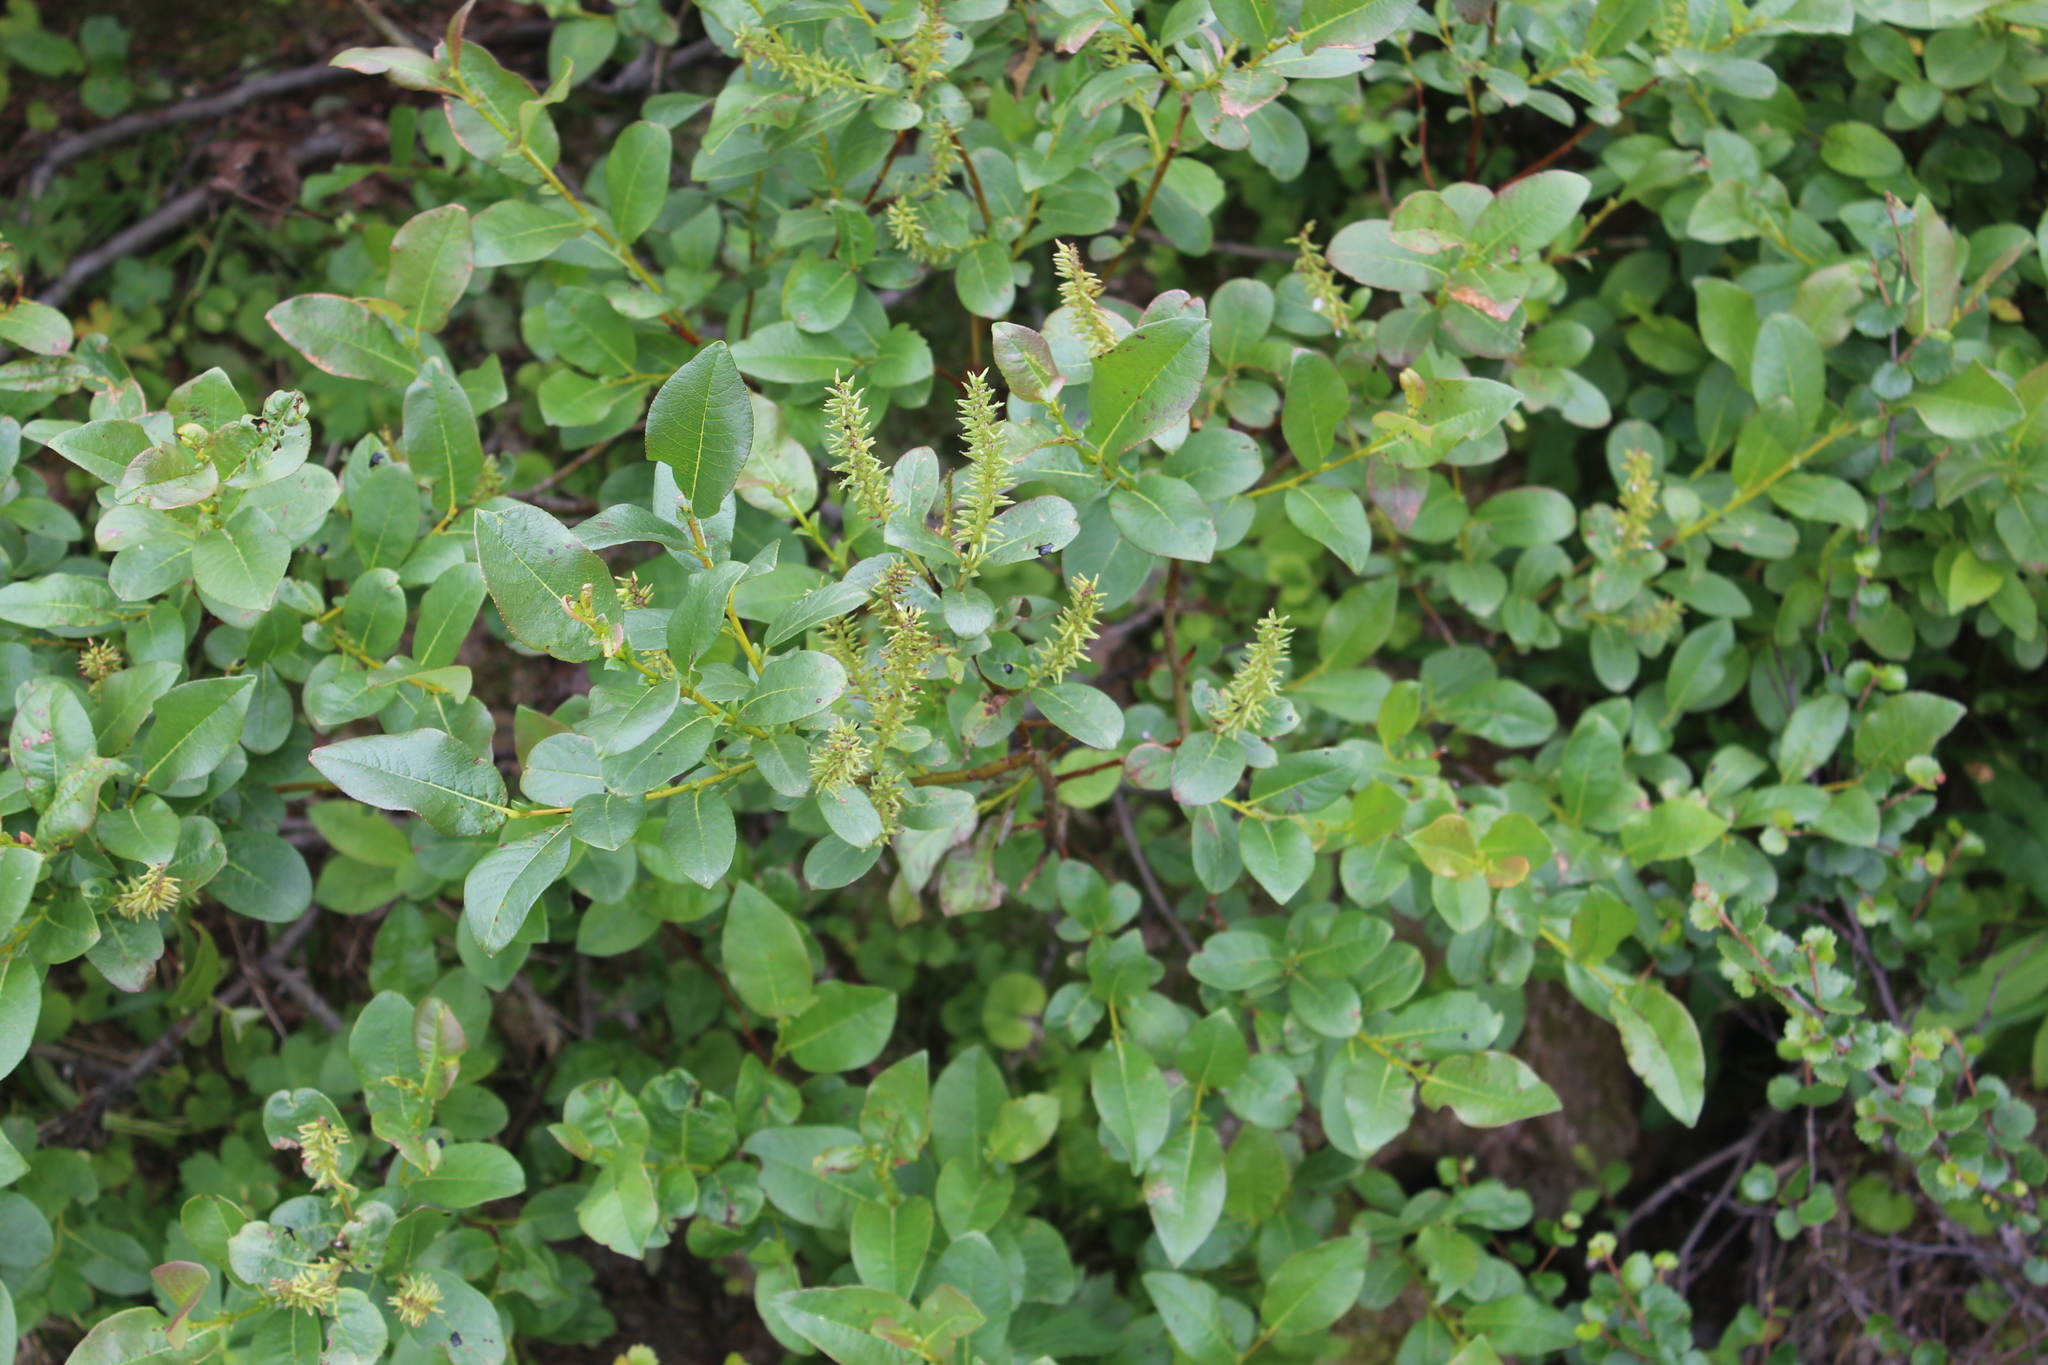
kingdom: Plantae
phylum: Tracheophyta
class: Magnoliopsida
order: Malpighiales
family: Salicaceae
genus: Salix
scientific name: Salix hastata
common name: Halberd willow
